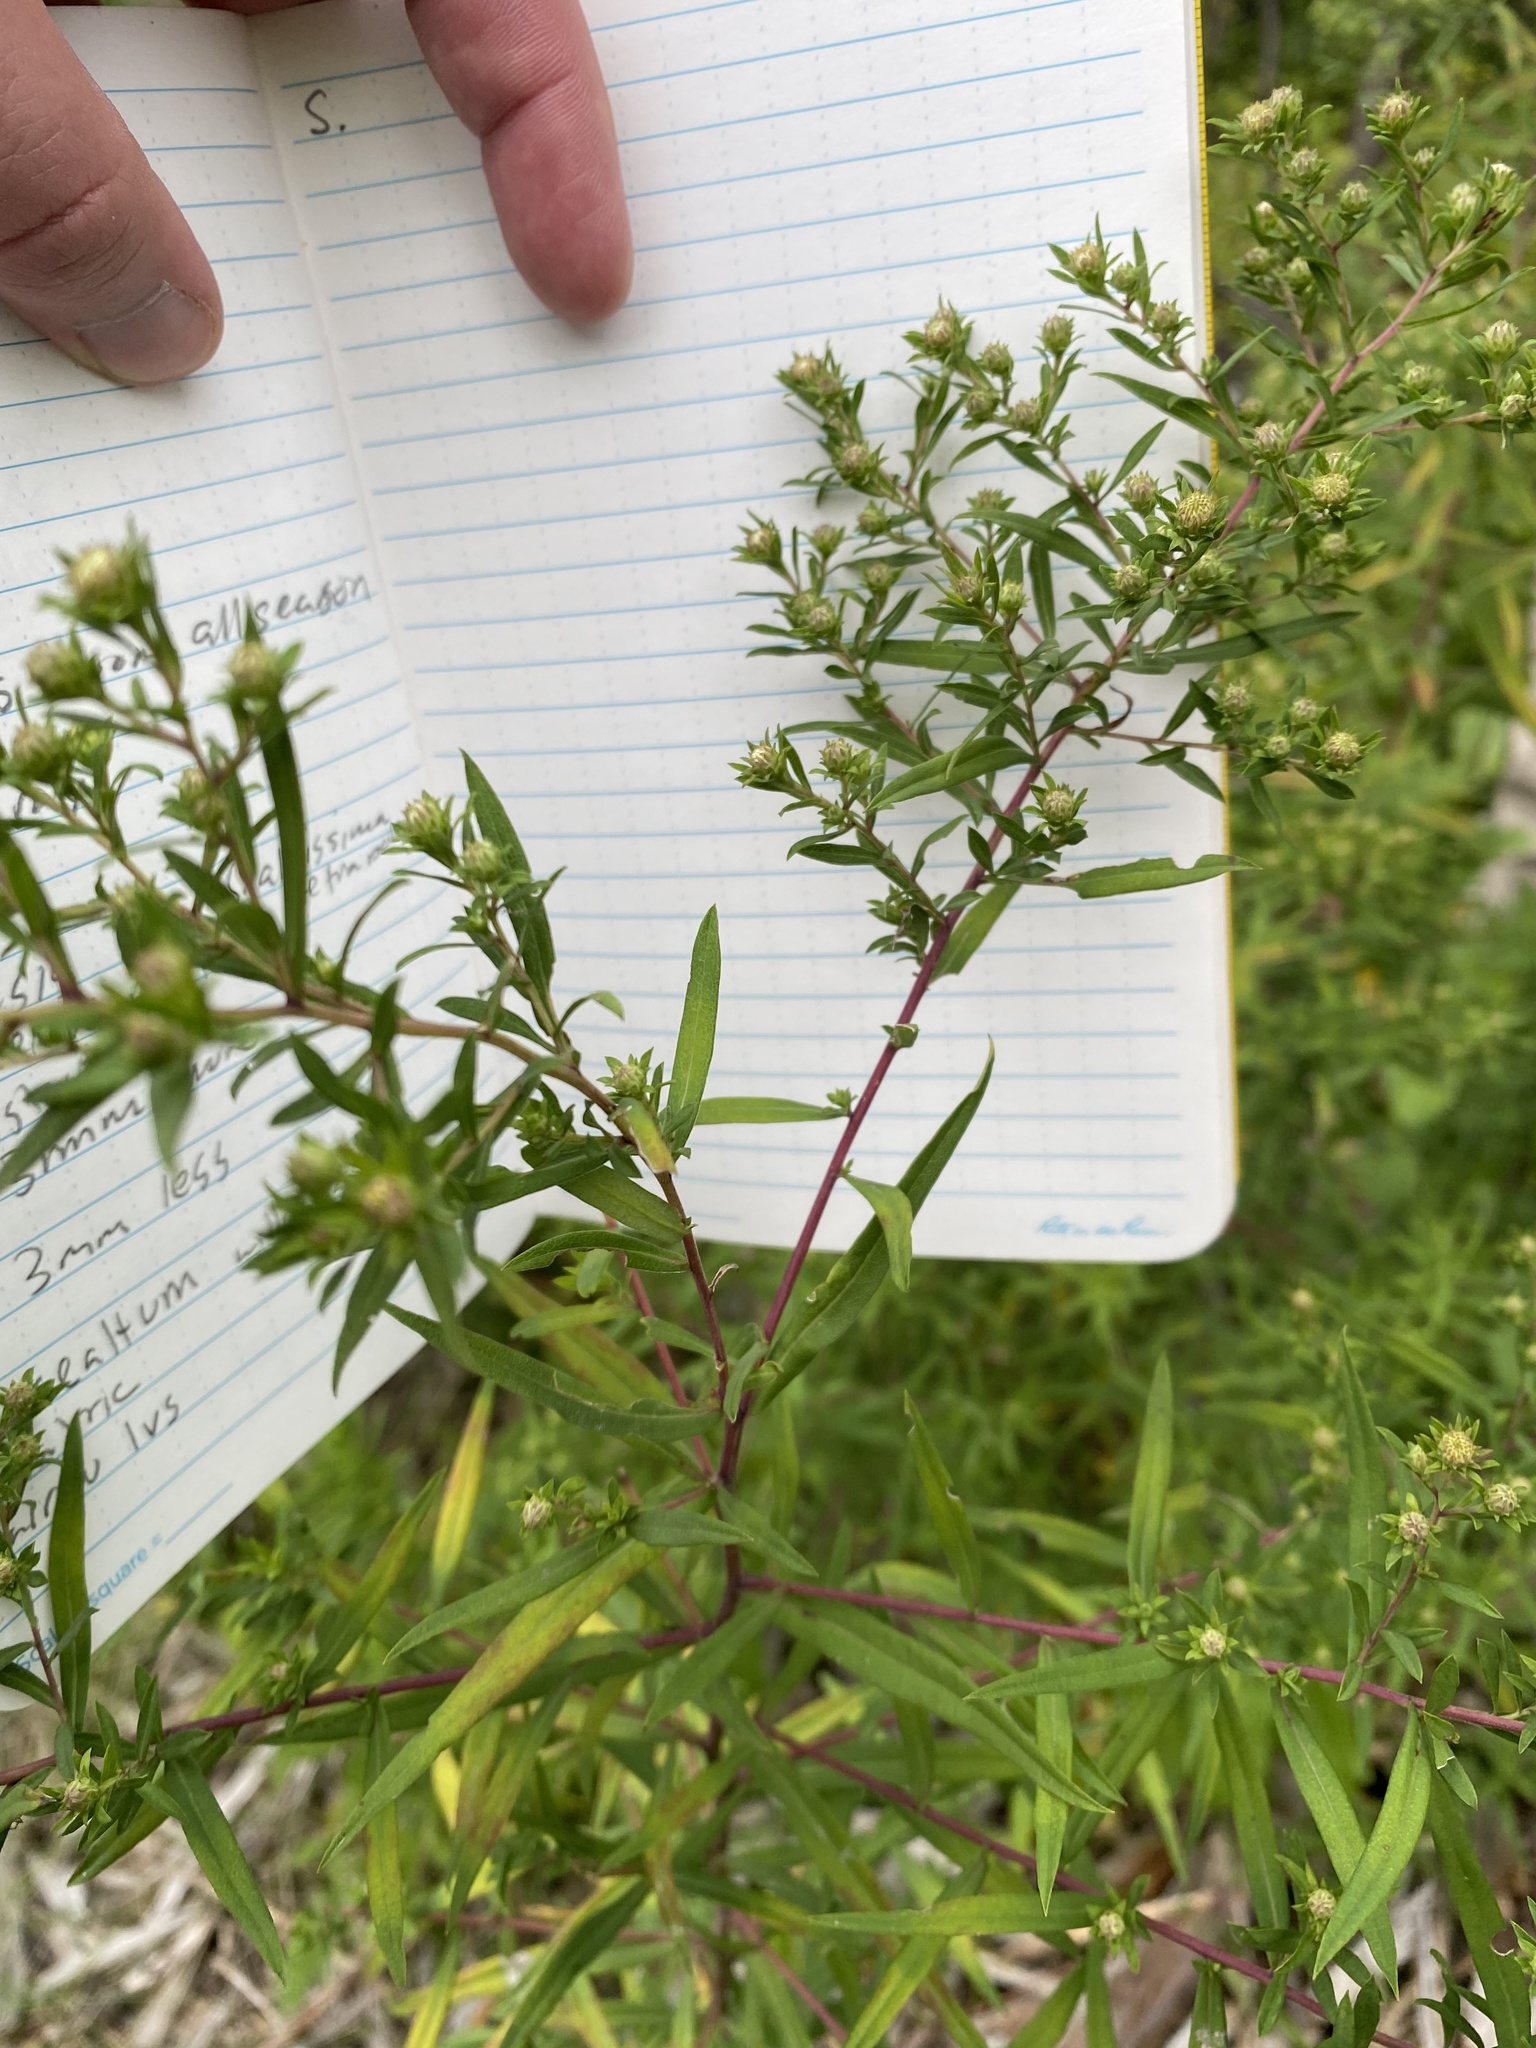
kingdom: Plantae
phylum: Tracheophyta
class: Magnoliopsida
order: Asterales
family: Asteraceae
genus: Symphyotrichum
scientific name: Symphyotrichum praealtum
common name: Willow aster
